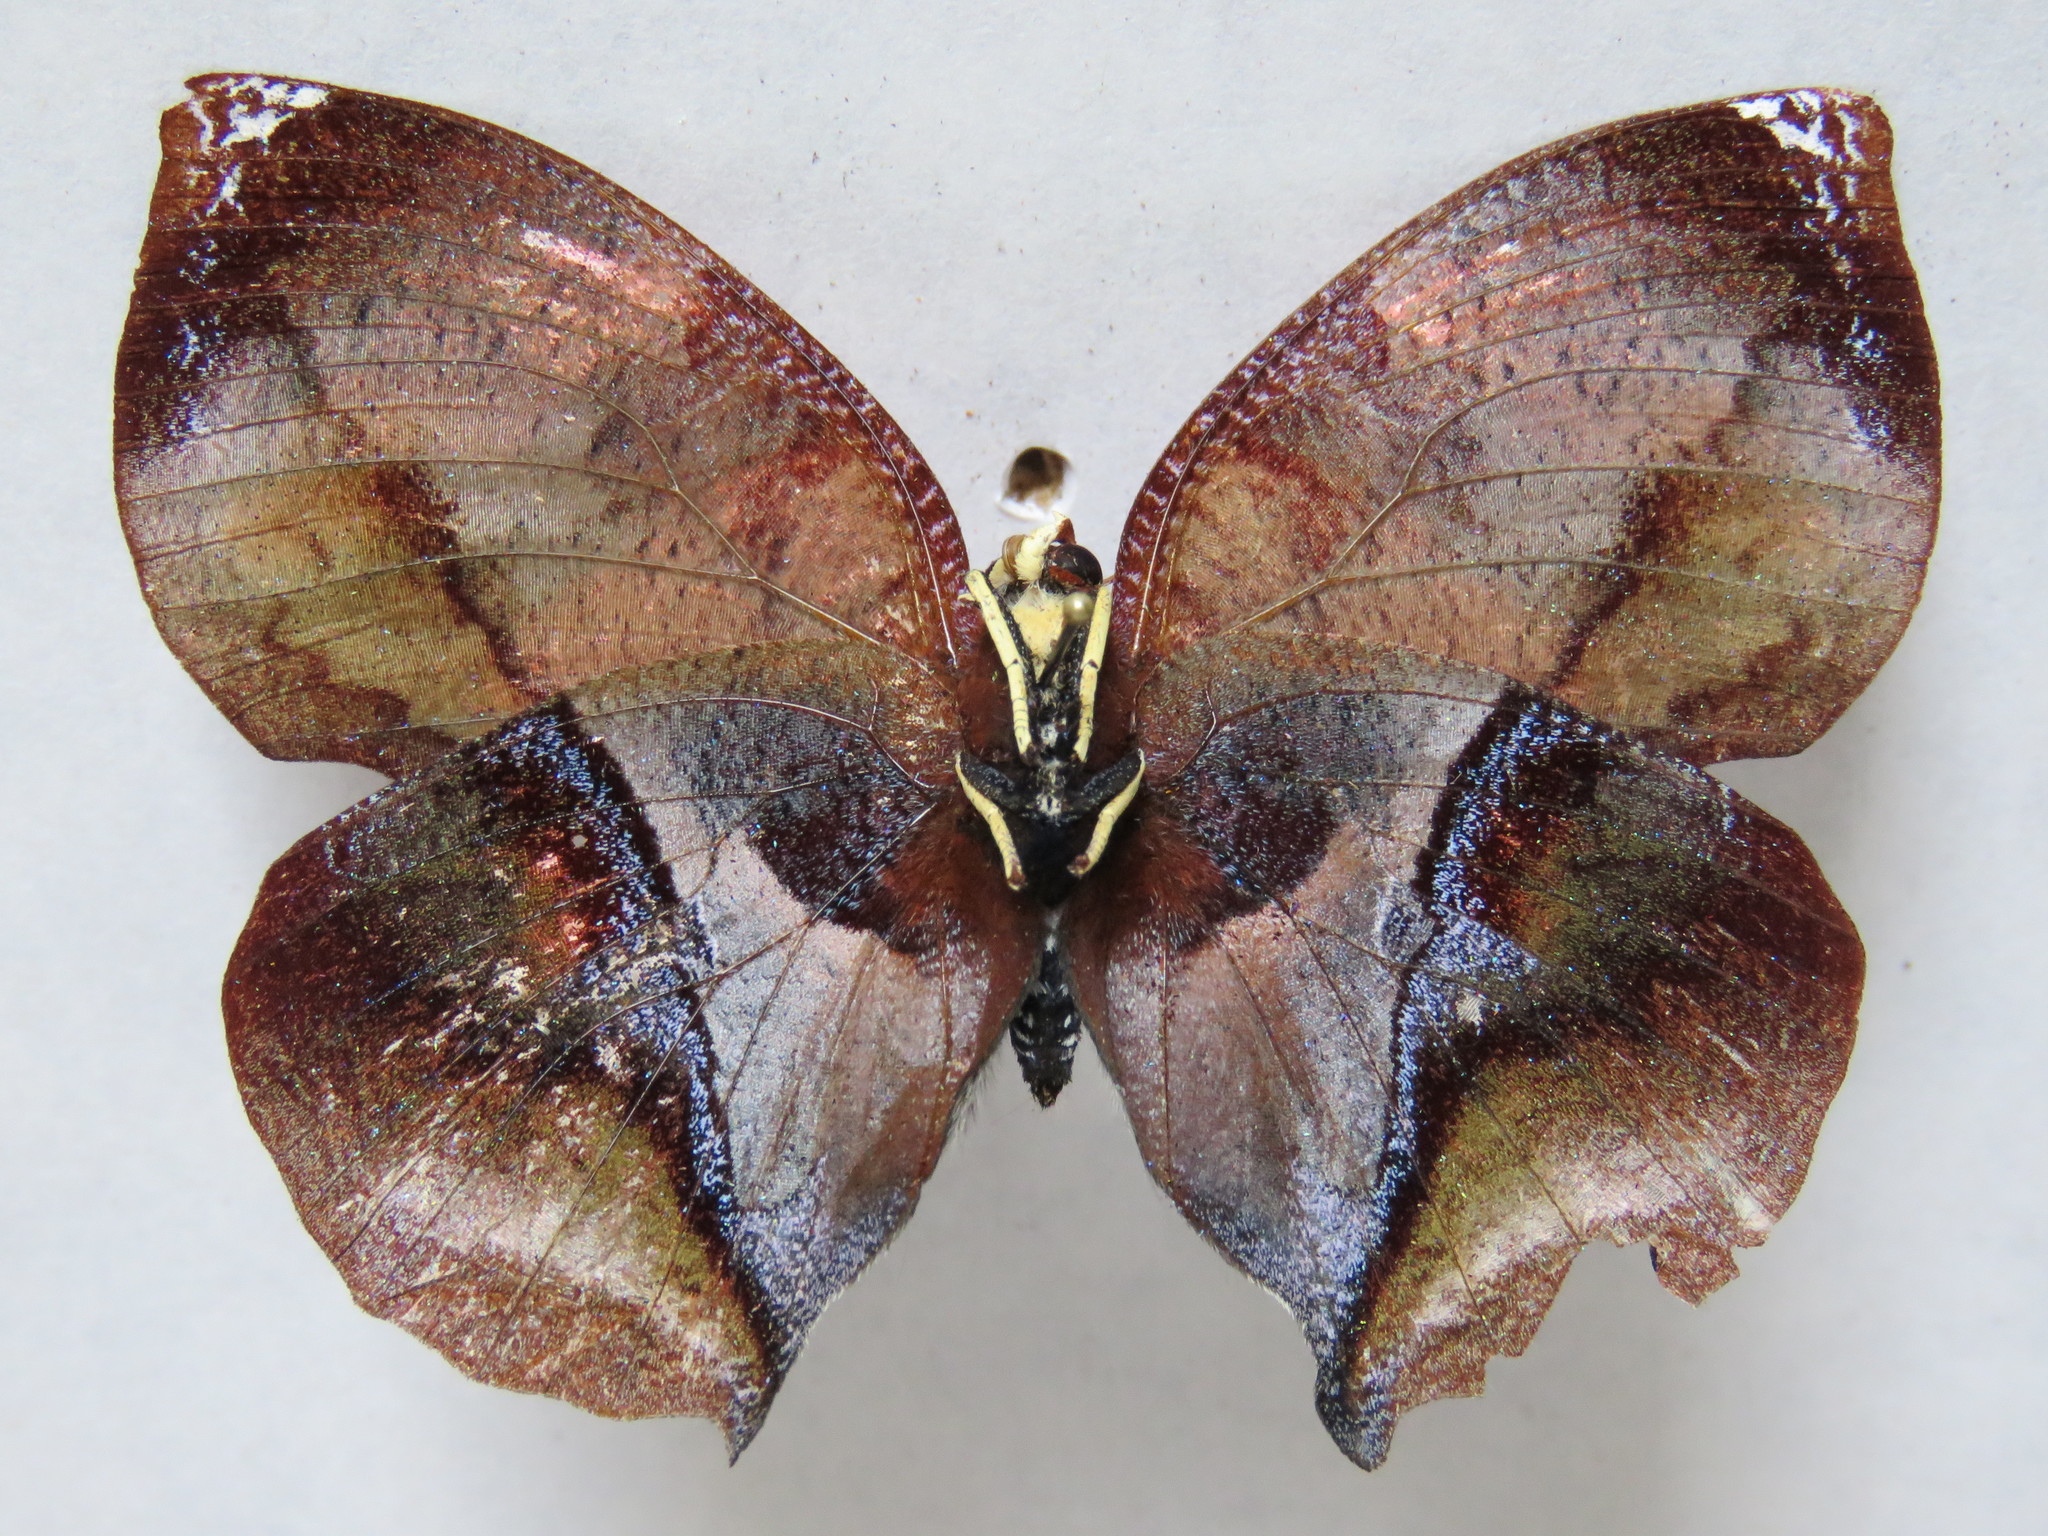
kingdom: Animalia
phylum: Arthropoda
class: Insecta
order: Lepidoptera
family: Nymphalidae
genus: Siderone
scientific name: Siderone galanthis
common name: Red-striped leafwing
